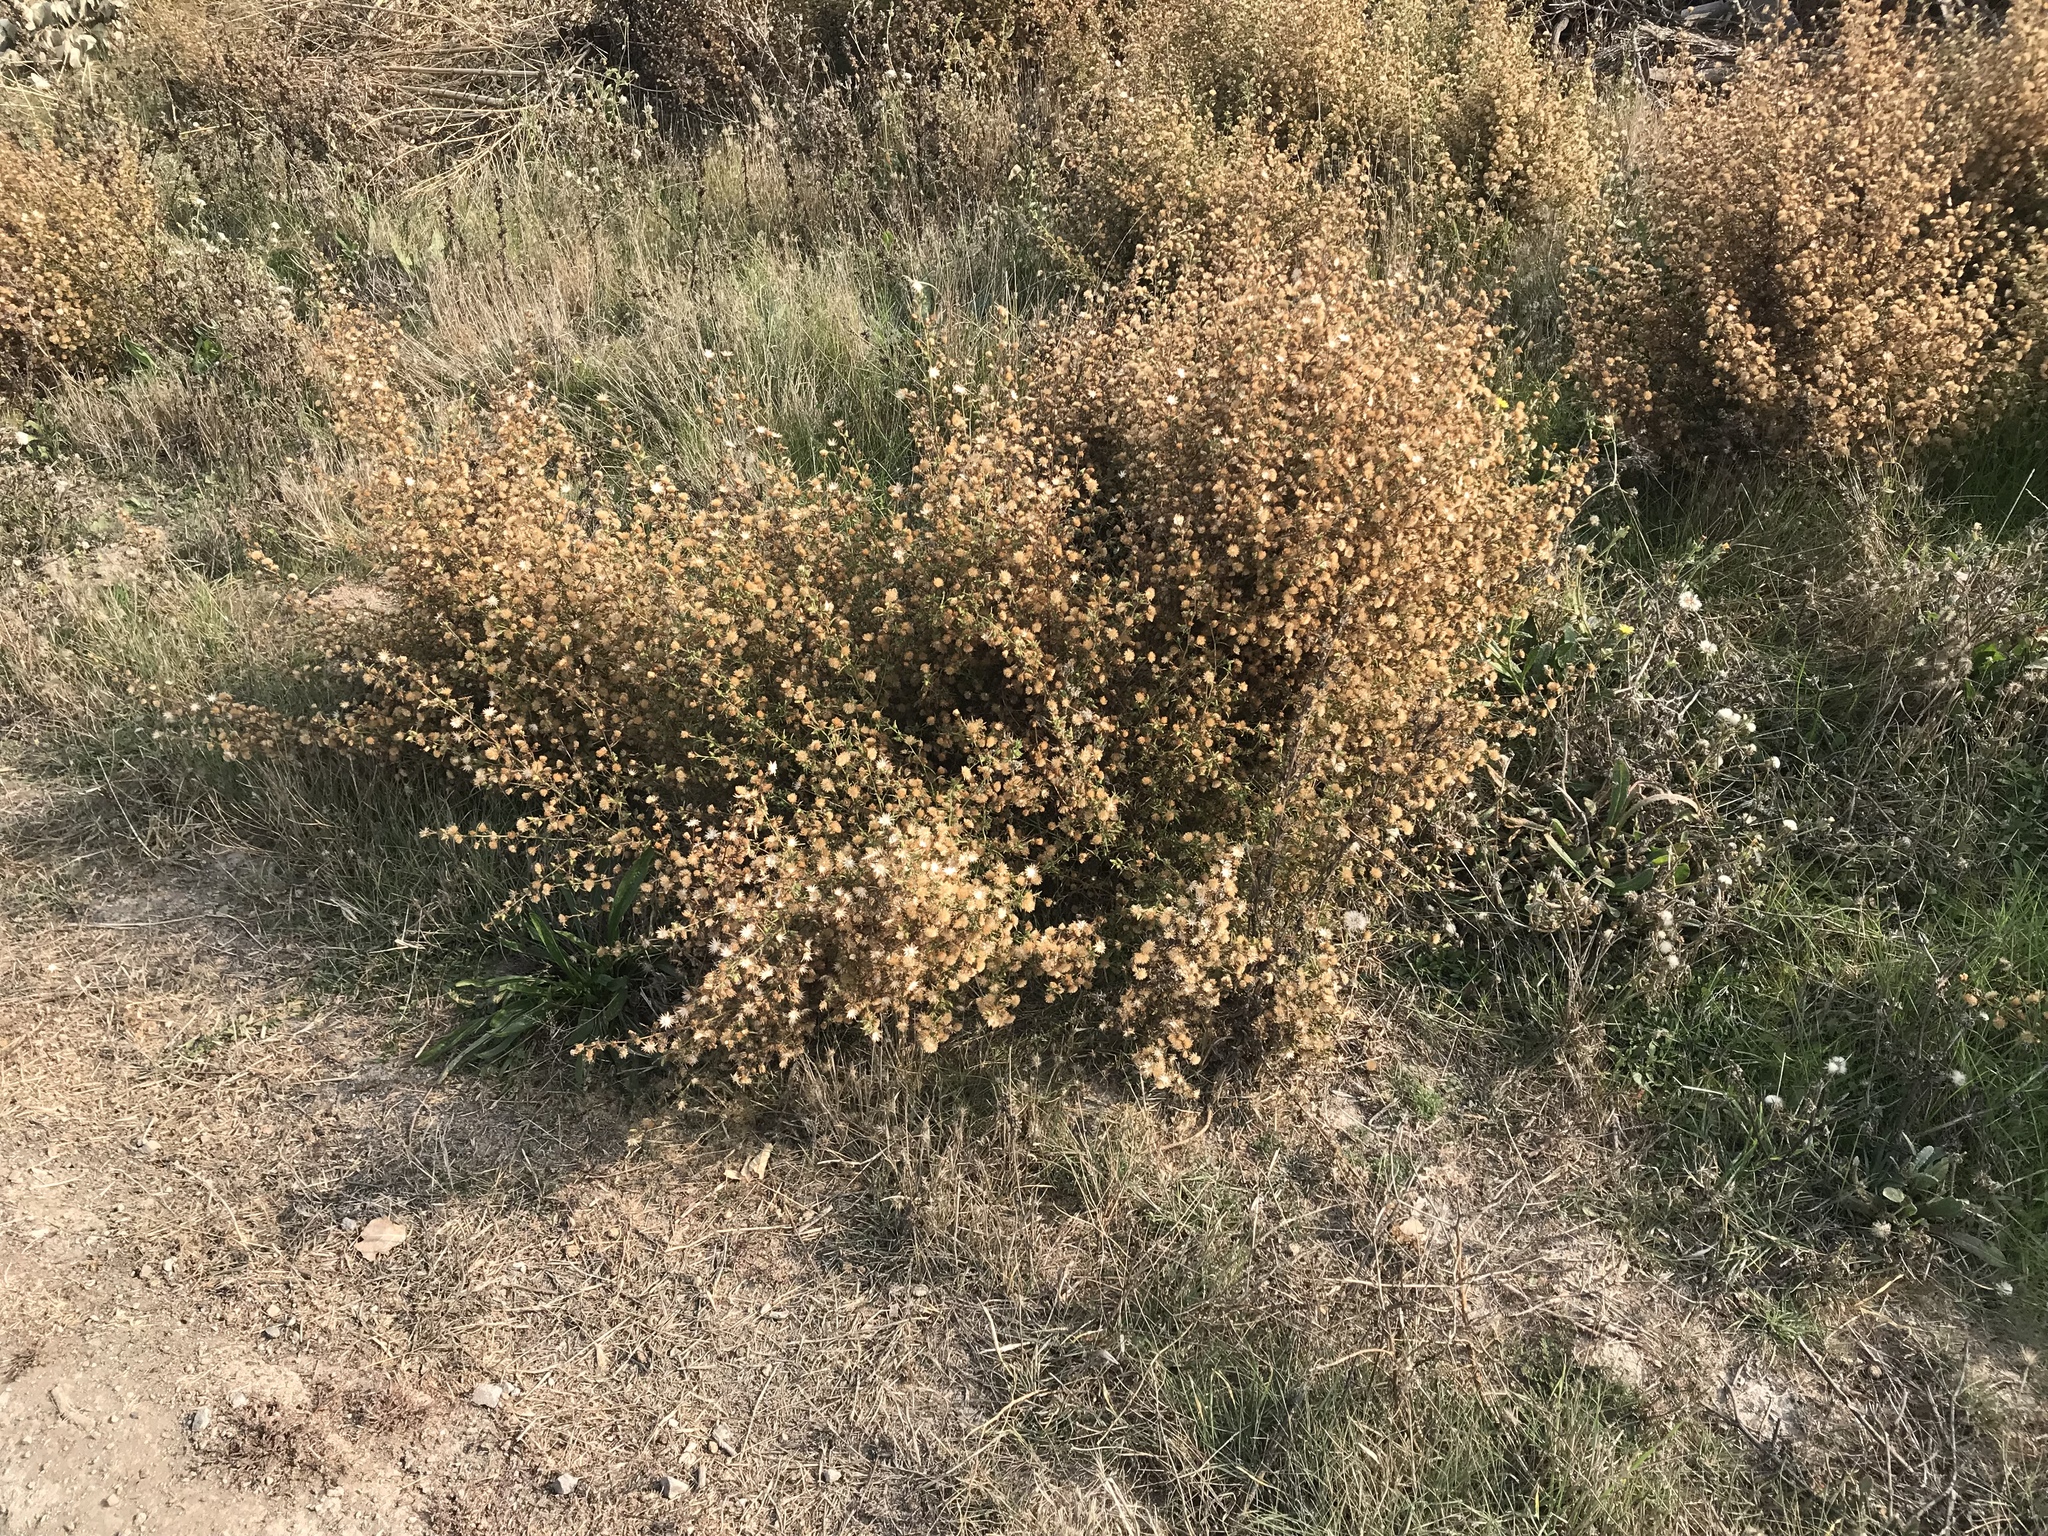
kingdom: Plantae
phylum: Tracheophyta
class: Magnoliopsida
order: Asterales
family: Asteraceae
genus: Dittrichia
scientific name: Dittrichia graveolens
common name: Stinking fleabane
